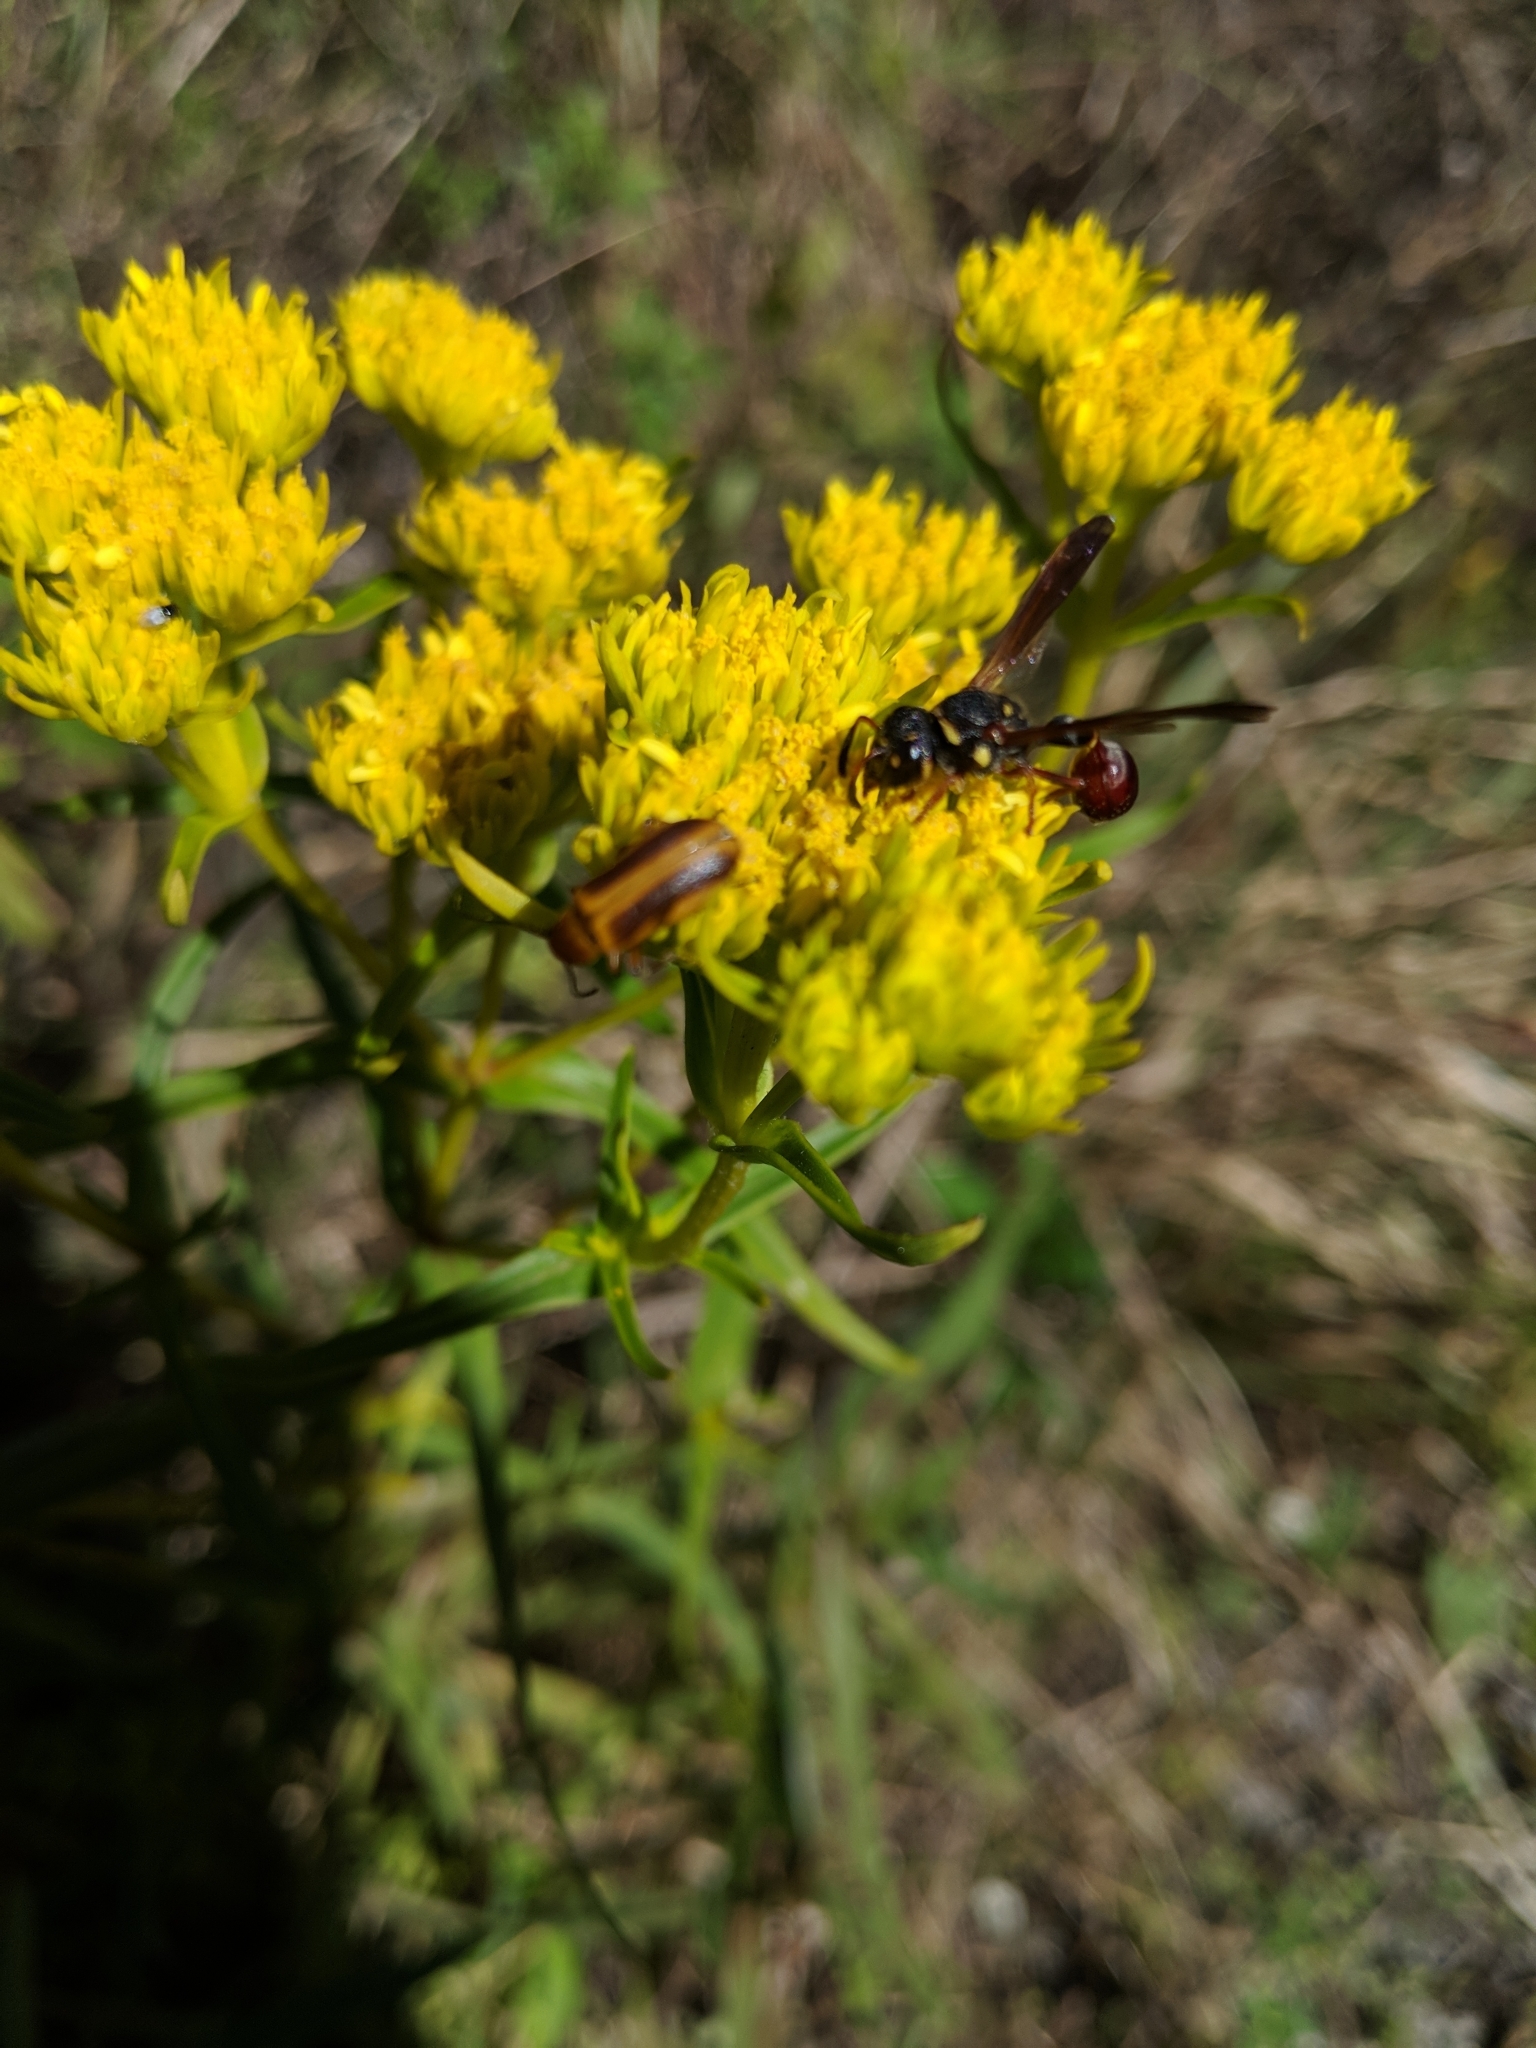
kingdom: Animalia
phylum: Arthropoda
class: Insecta
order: Hymenoptera
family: Eumenidae
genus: Zethus
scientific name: Zethus slossonae
